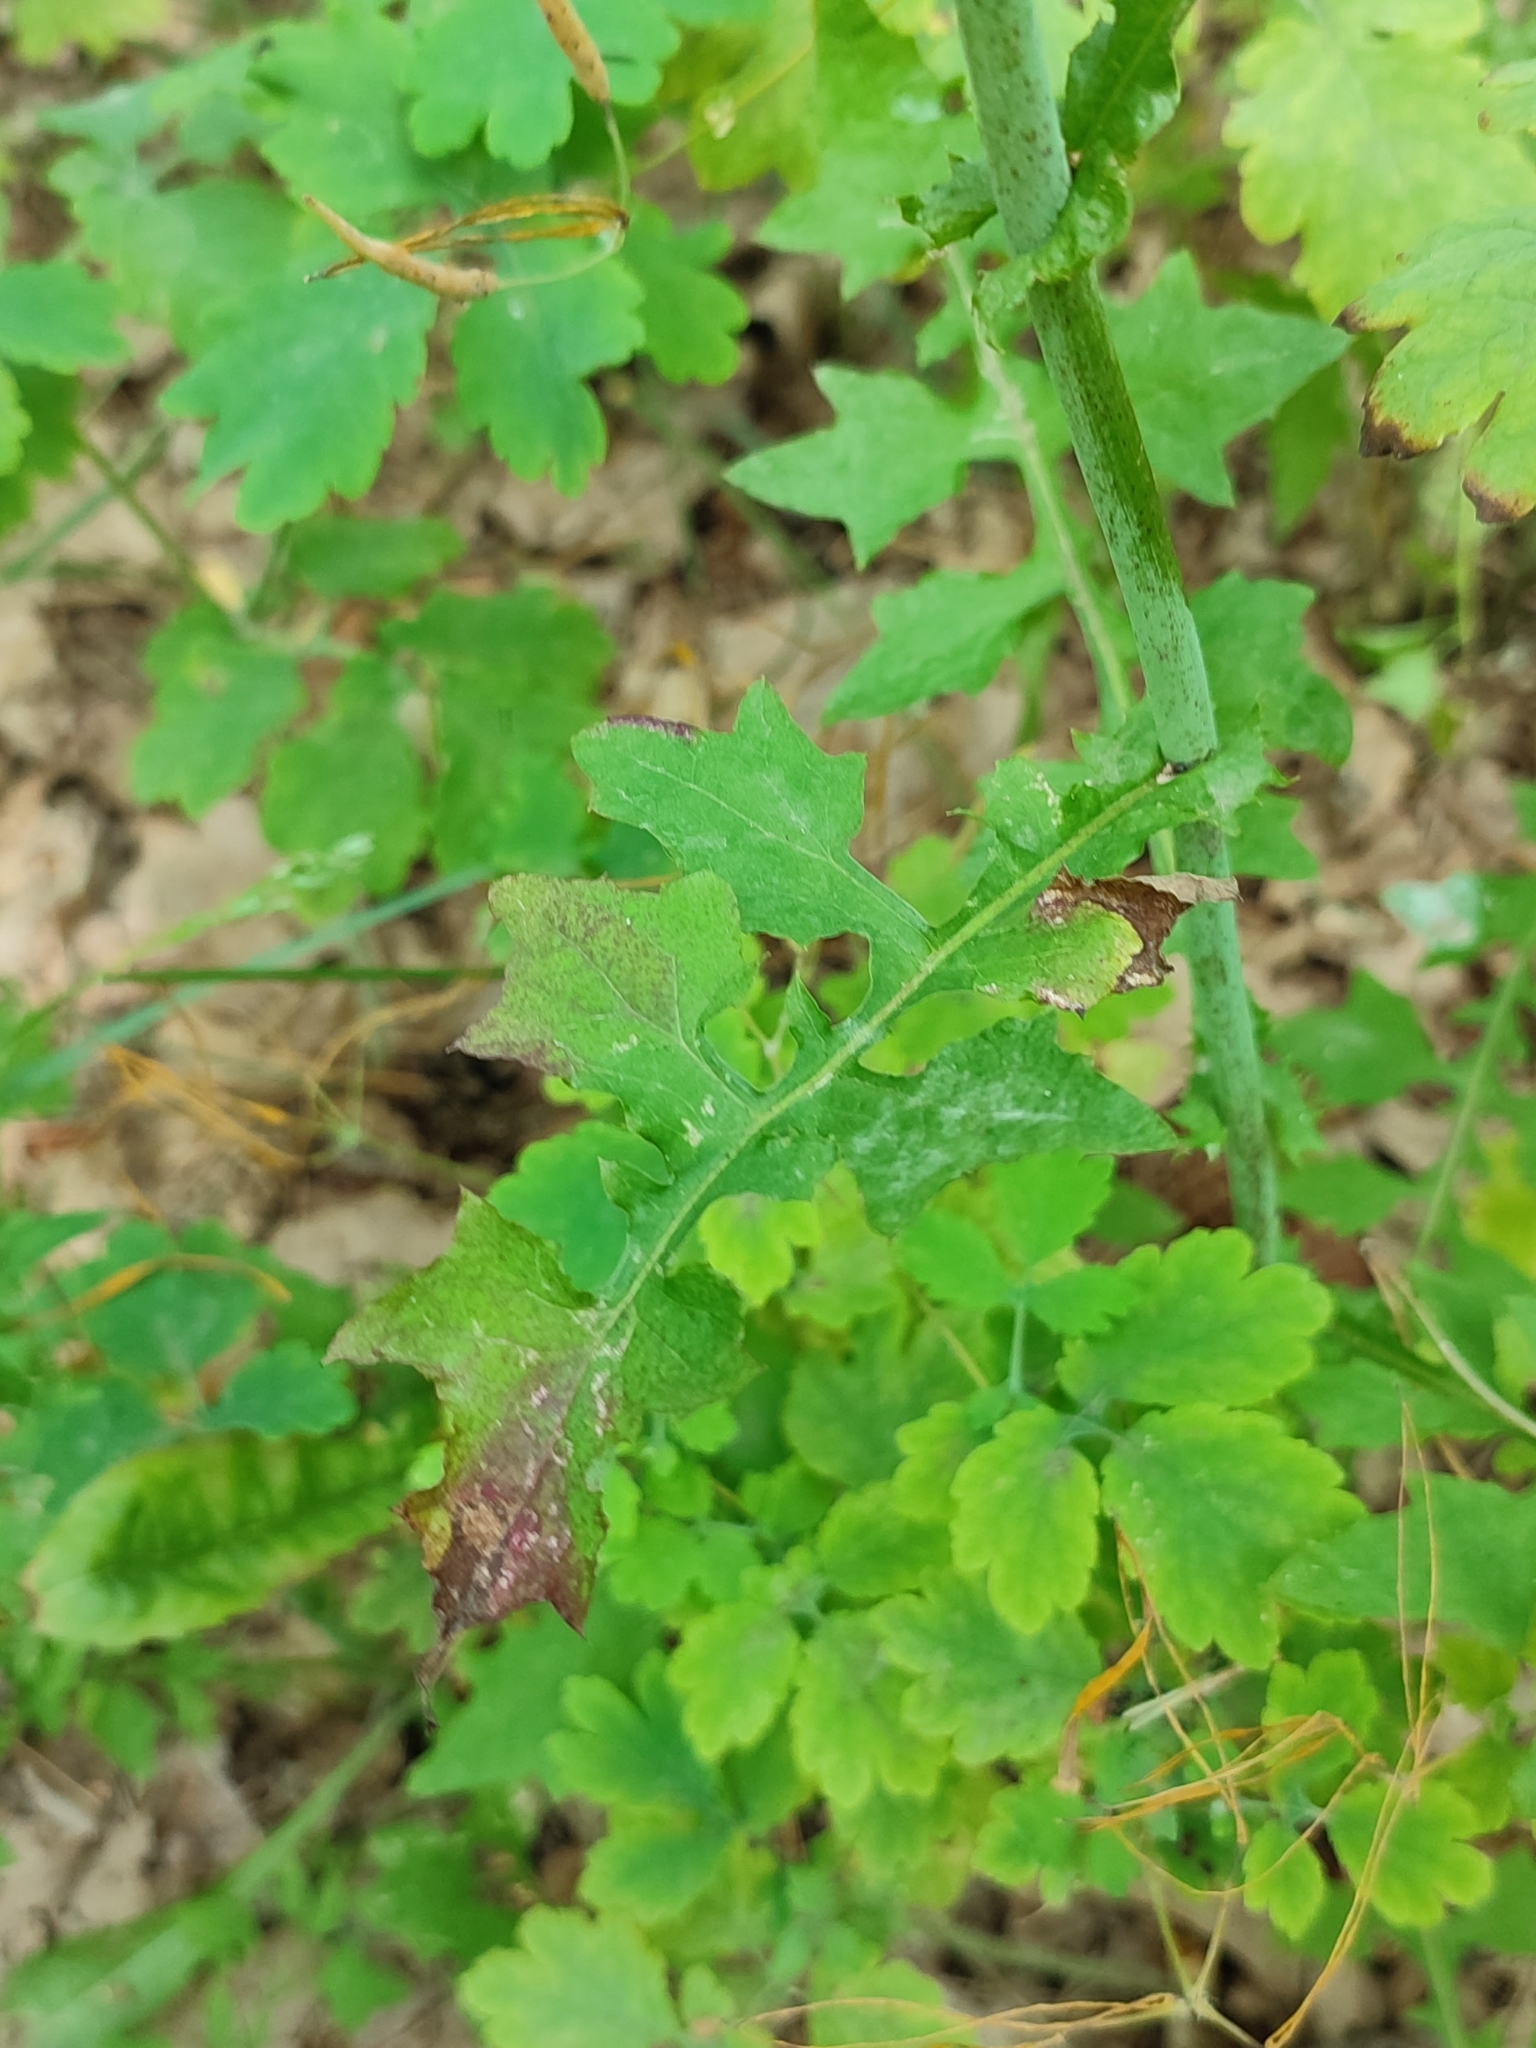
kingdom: Plantae
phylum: Tracheophyta
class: Magnoliopsida
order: Asterales
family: Asteraceae
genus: Mycelis
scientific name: Mycelis muralis
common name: Wall lettuce
